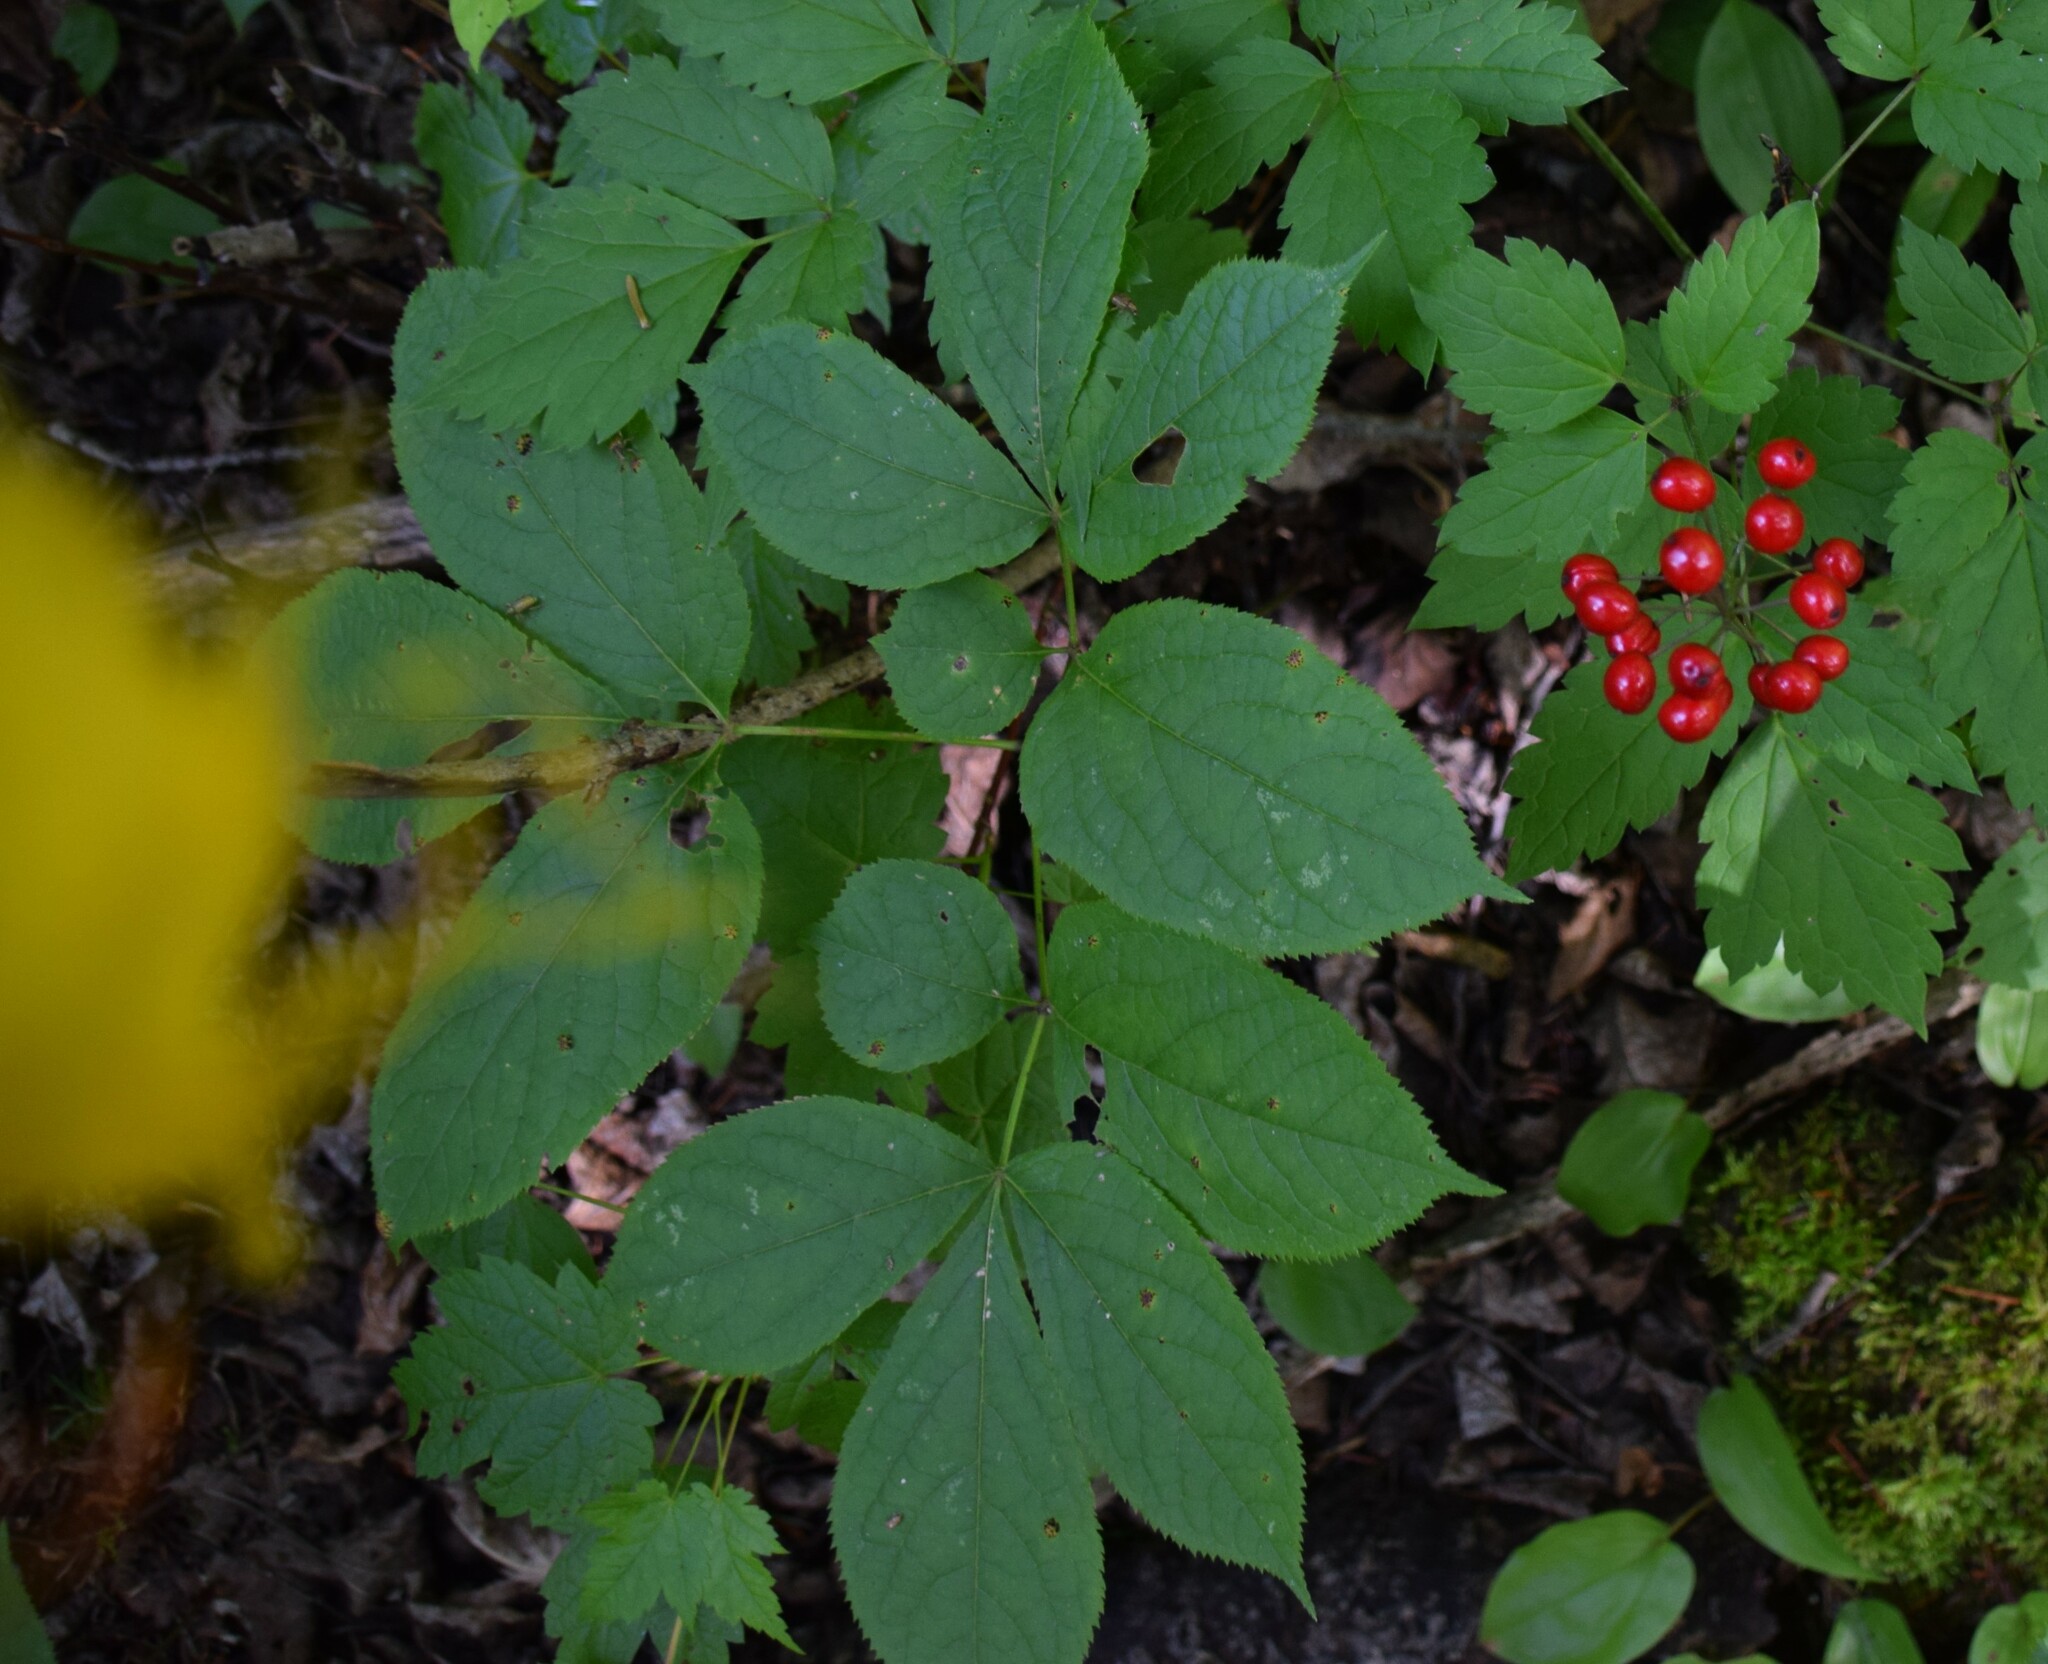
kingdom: Plantae
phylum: Tracheophyta
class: Magnoliopsida
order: Ranunculales
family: Ranunculaceae
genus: Actaea
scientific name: Actaea rubra
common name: Red baneberry
